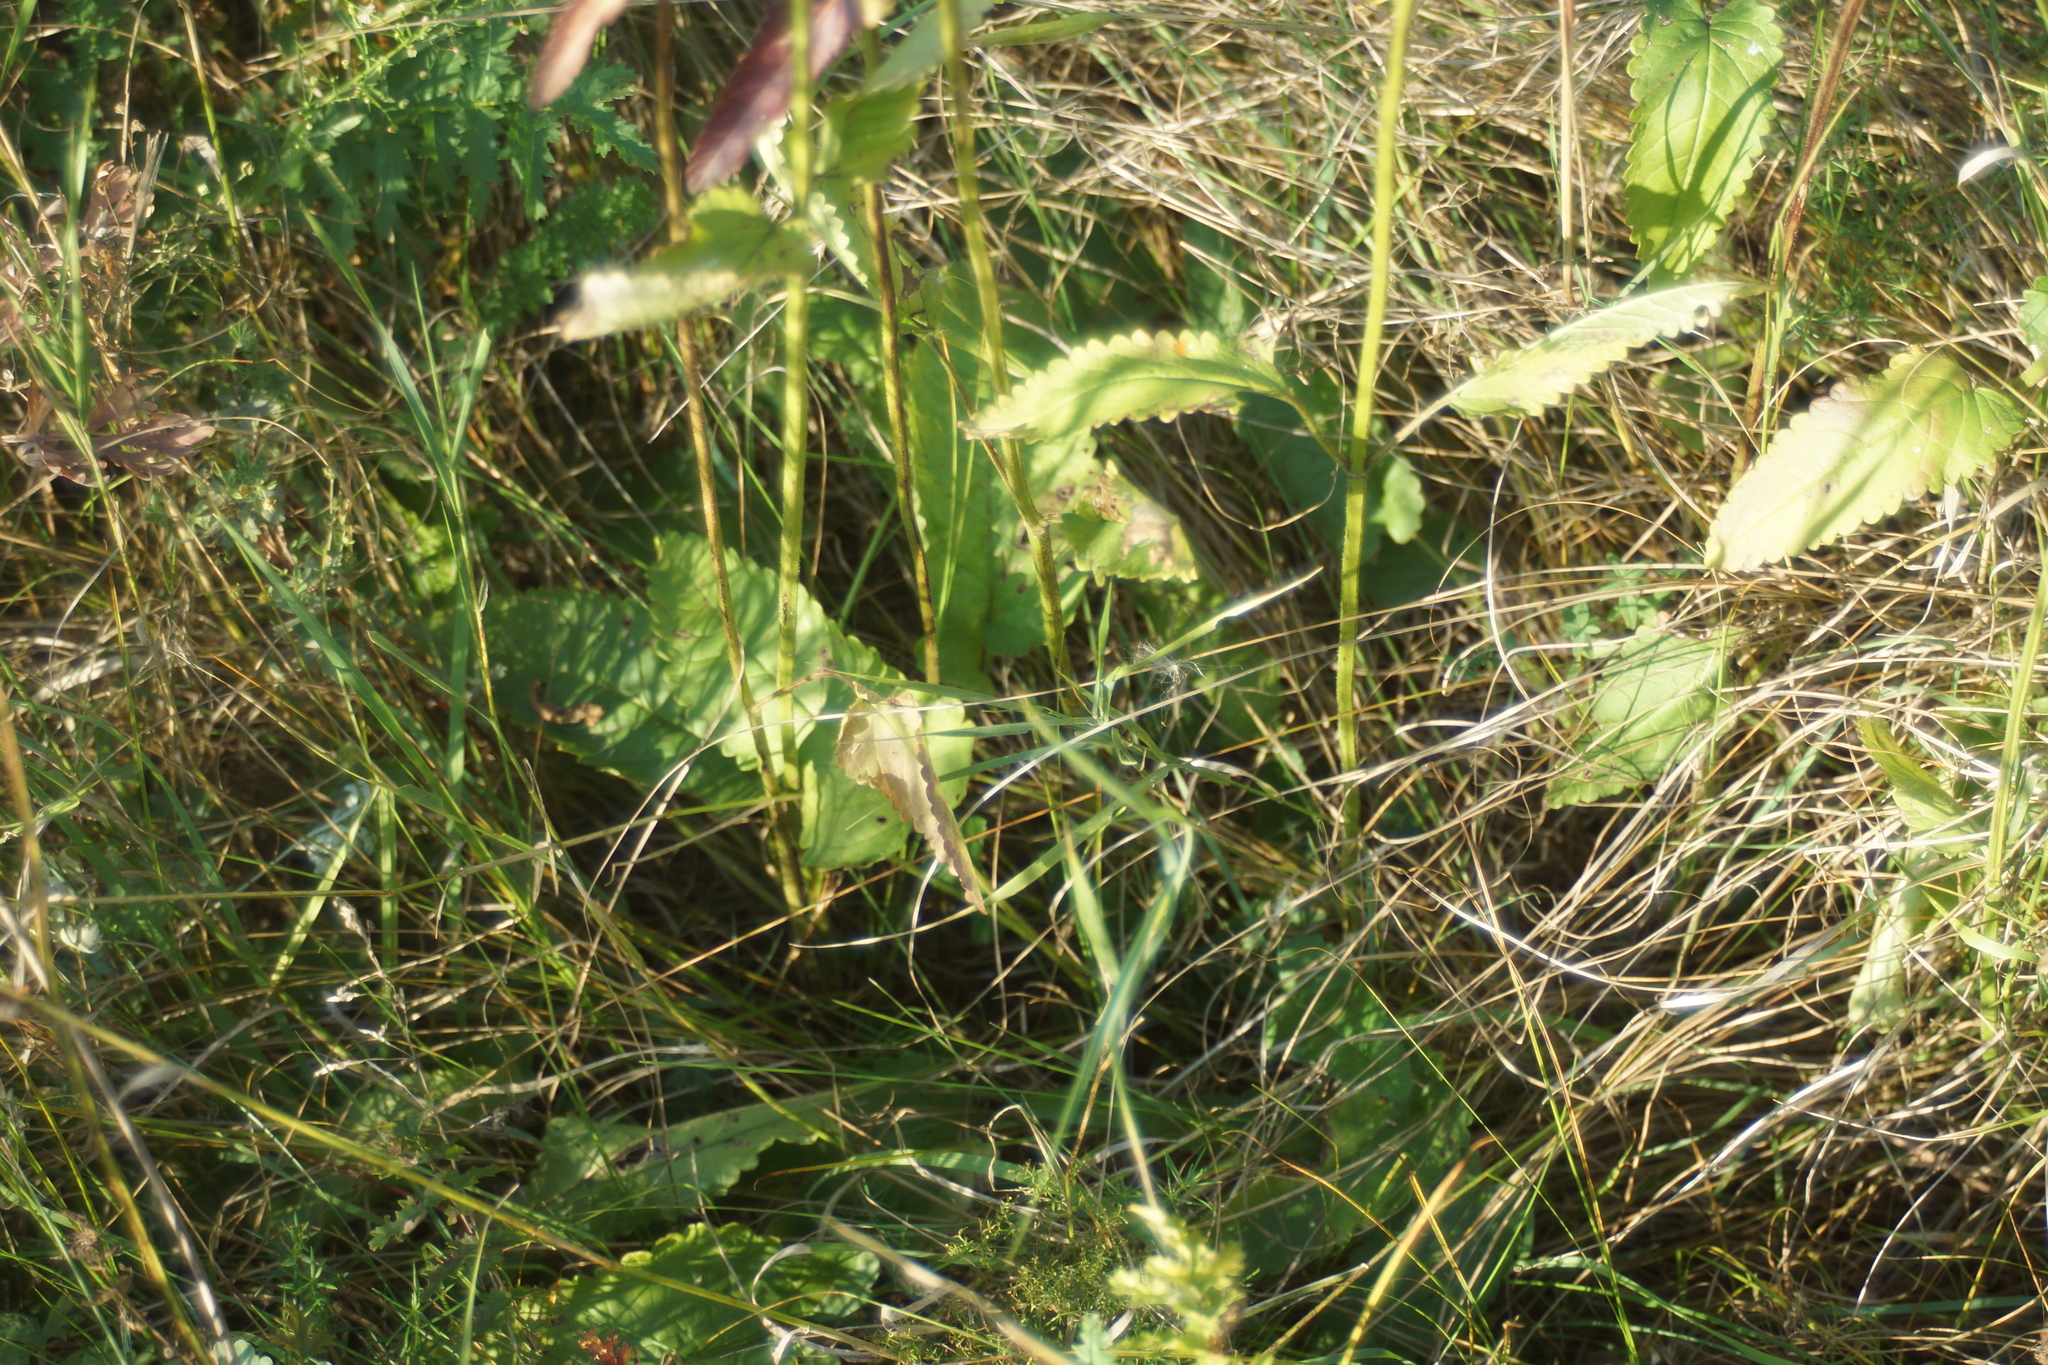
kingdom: Plantae
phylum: Tracheophyta
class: Magnoliopsida
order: Lamiales
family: Lamiaceae
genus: Betonica
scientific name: Betonica officinalis
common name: Bishop's-wort
